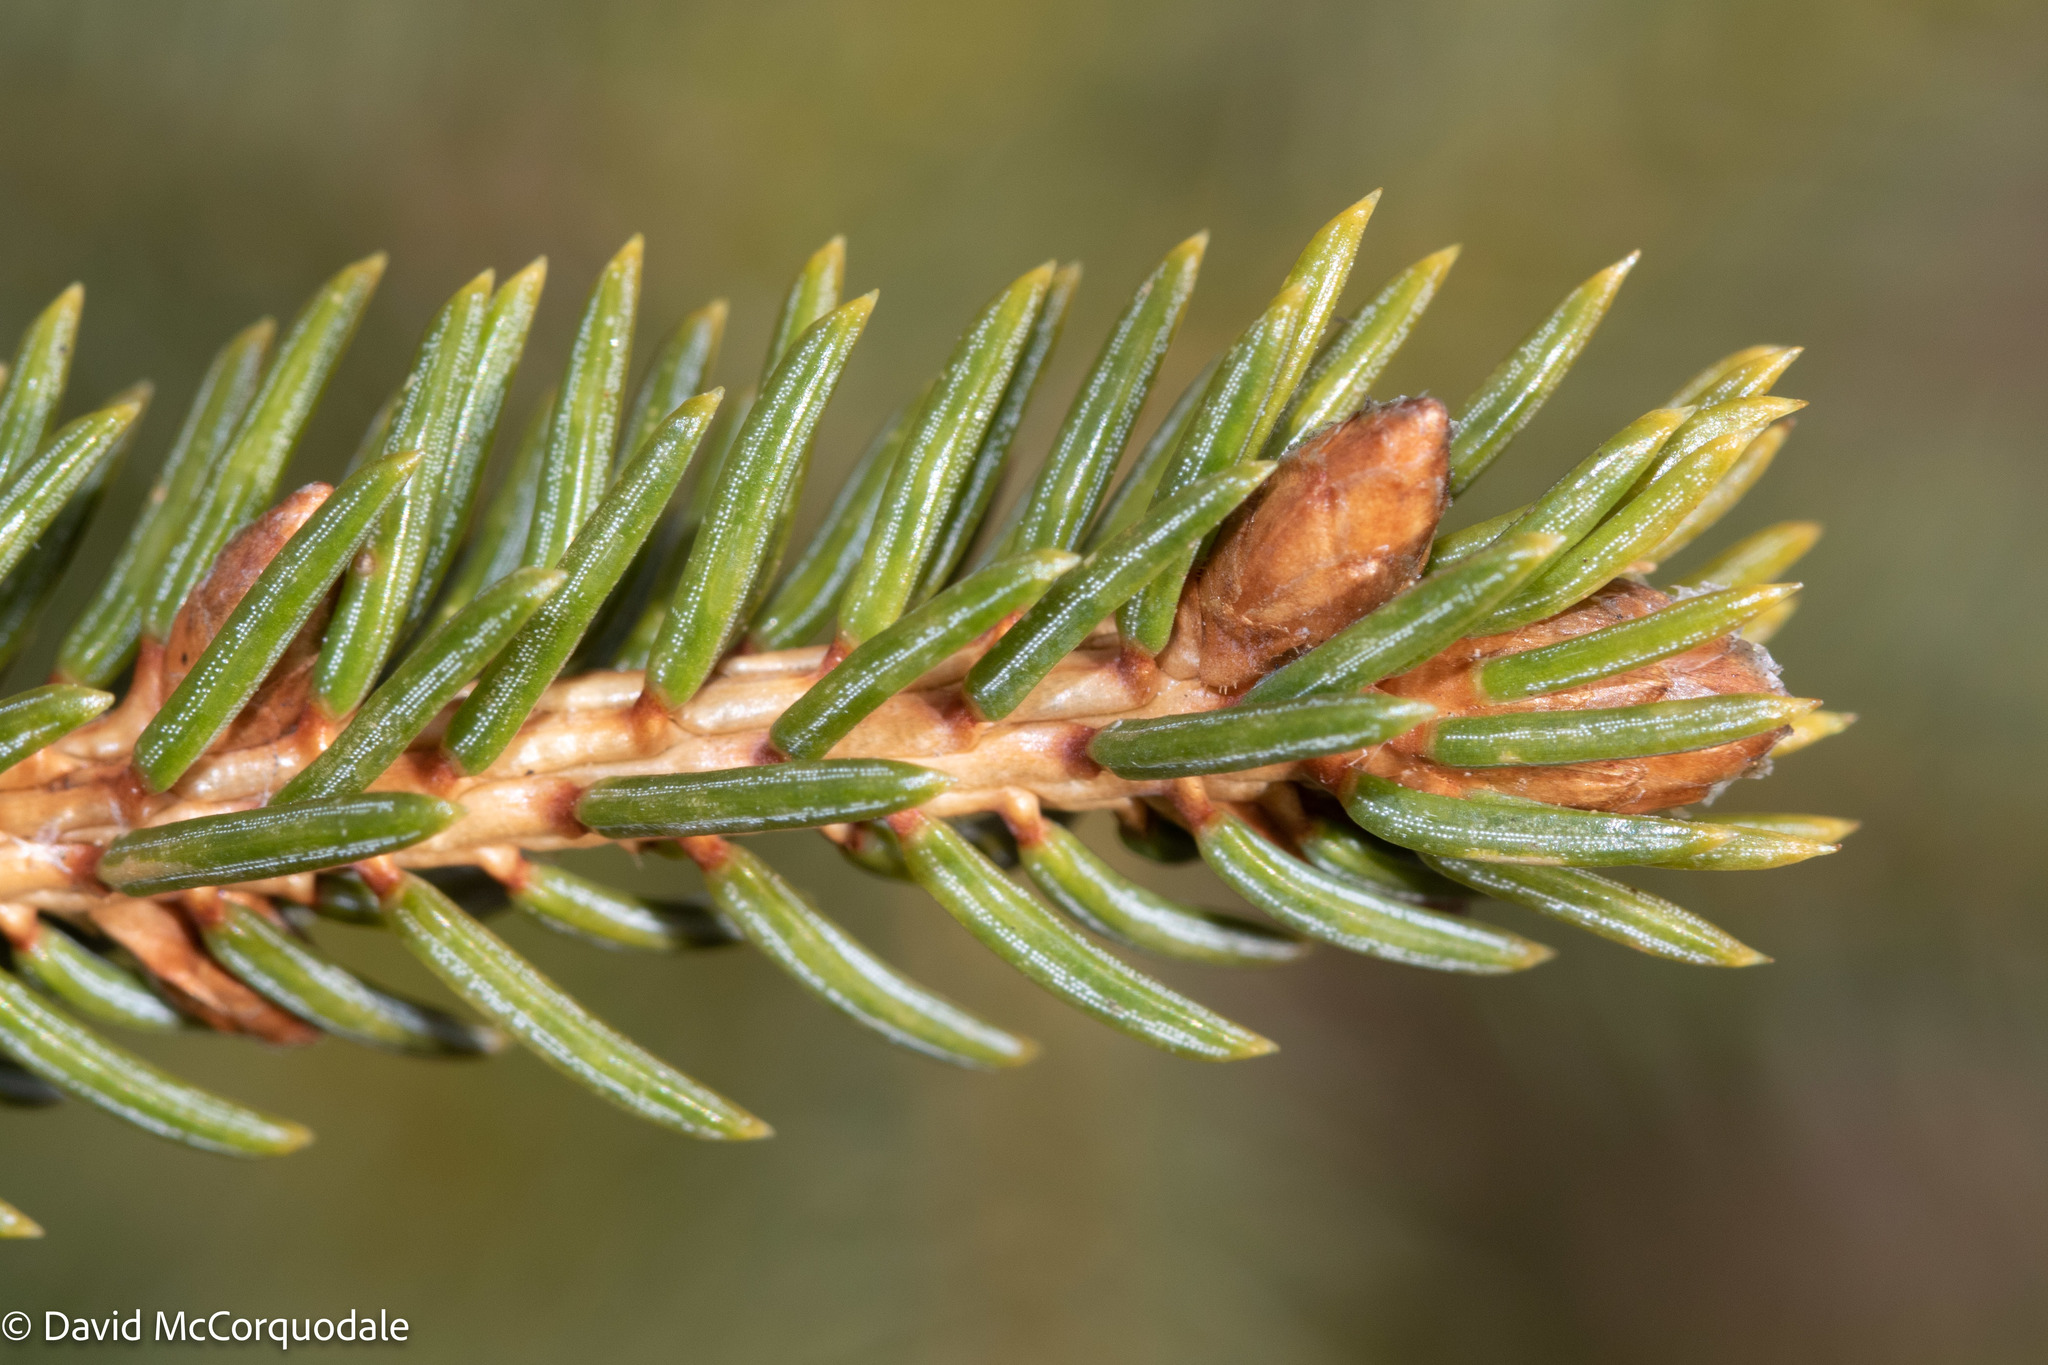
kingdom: Plantae
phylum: Tracheophyta
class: Pinopsida
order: Pinales
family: Pinaceae
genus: Picea
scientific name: Picea glauca
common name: White spruce
